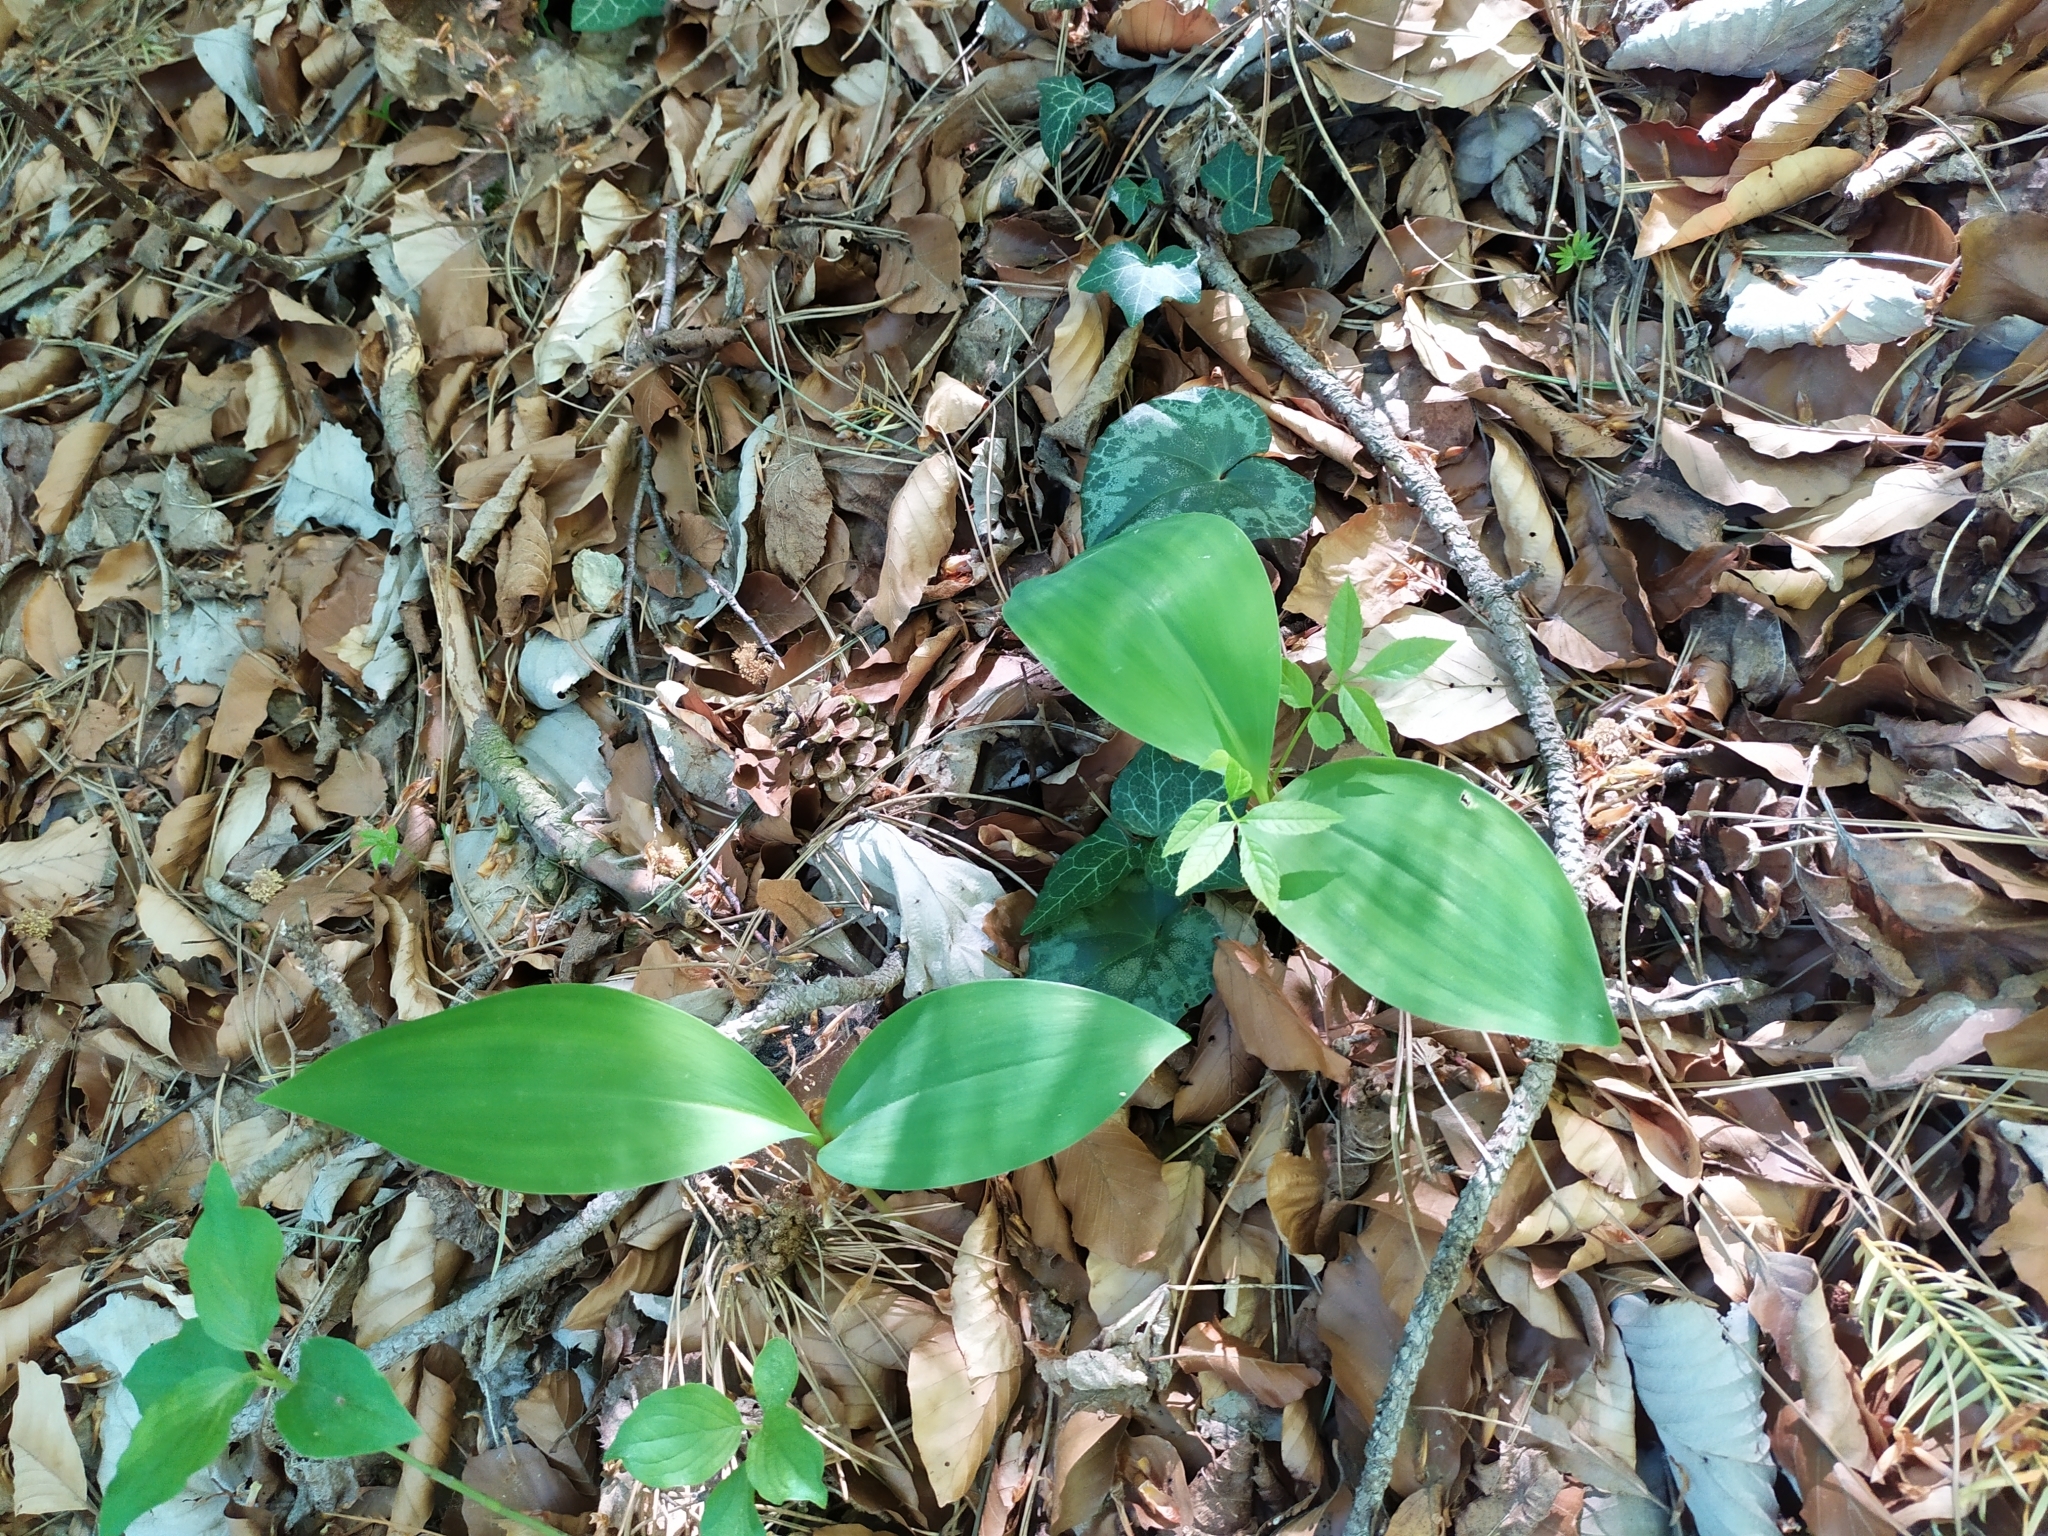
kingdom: Plantae
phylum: Tracheophyta
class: Liliopsida
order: Asparagales
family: Asparagaceae
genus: Convallaria
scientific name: Convallaria majalis
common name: Lily-of-the-valley
